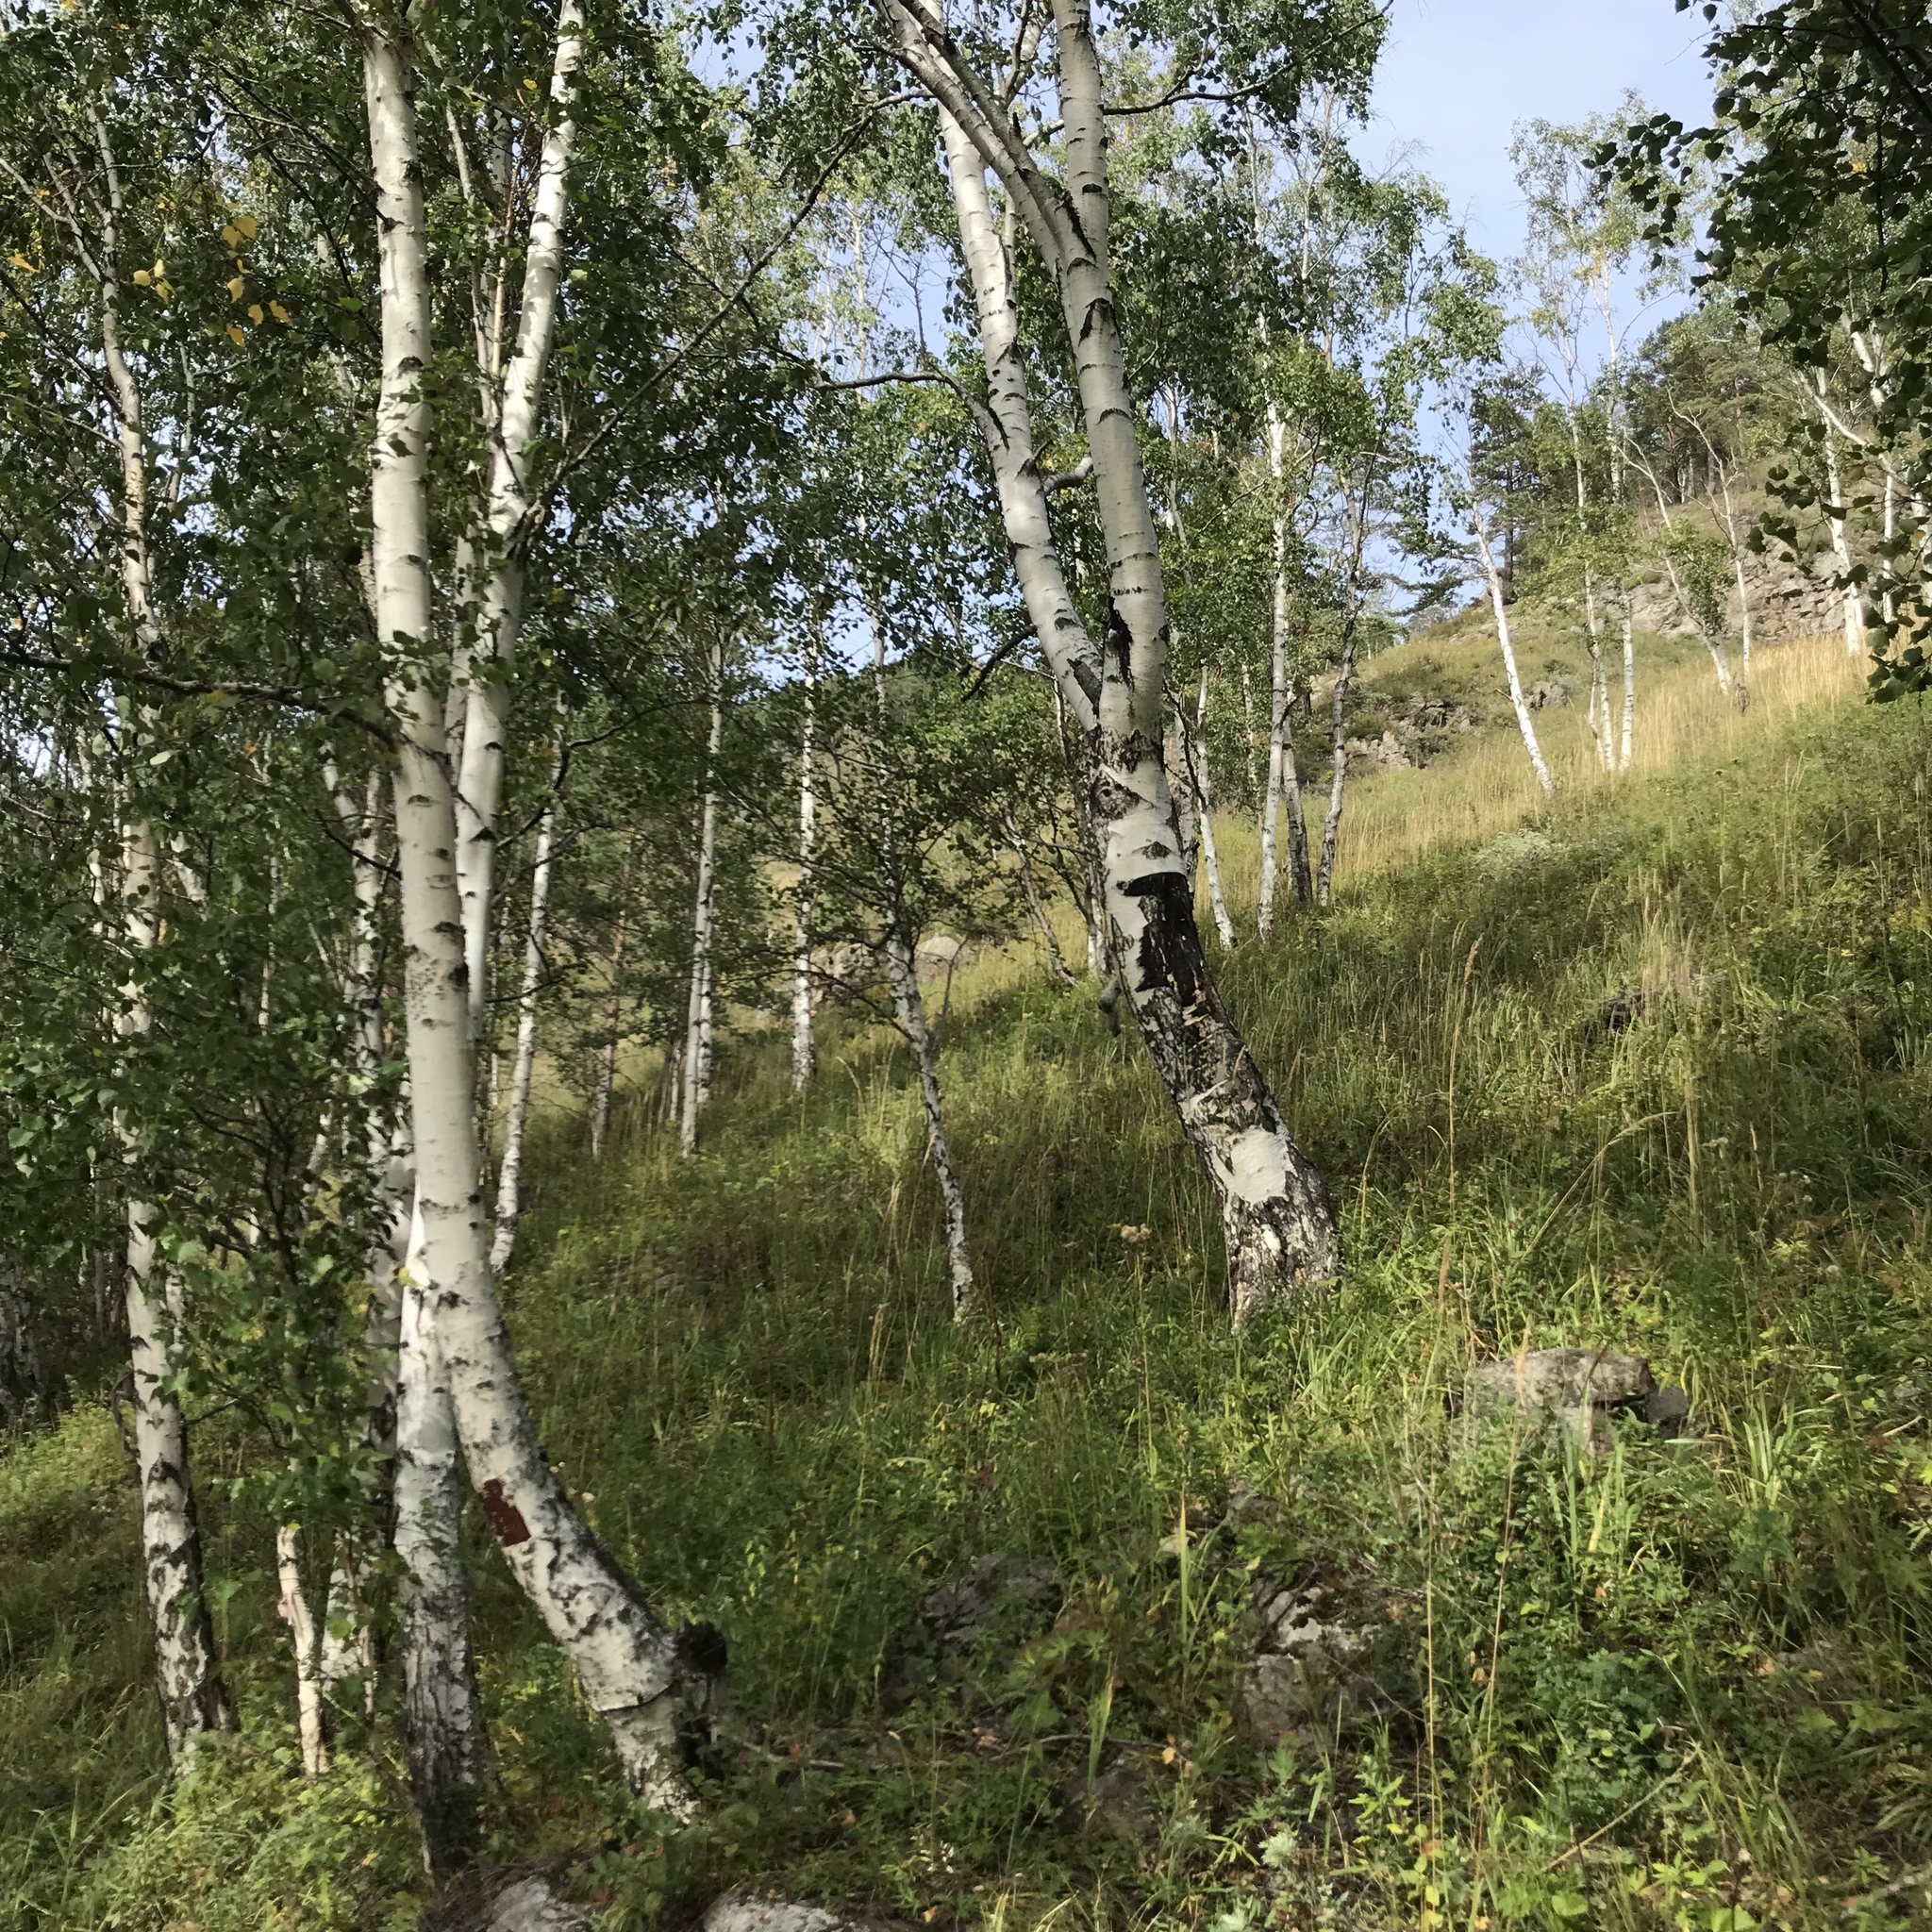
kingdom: Plantae
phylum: Tracheophyta
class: Magnoliopsida
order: Fagales
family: Betulaceae
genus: Betula
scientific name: Betula pendula
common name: Silver birch
